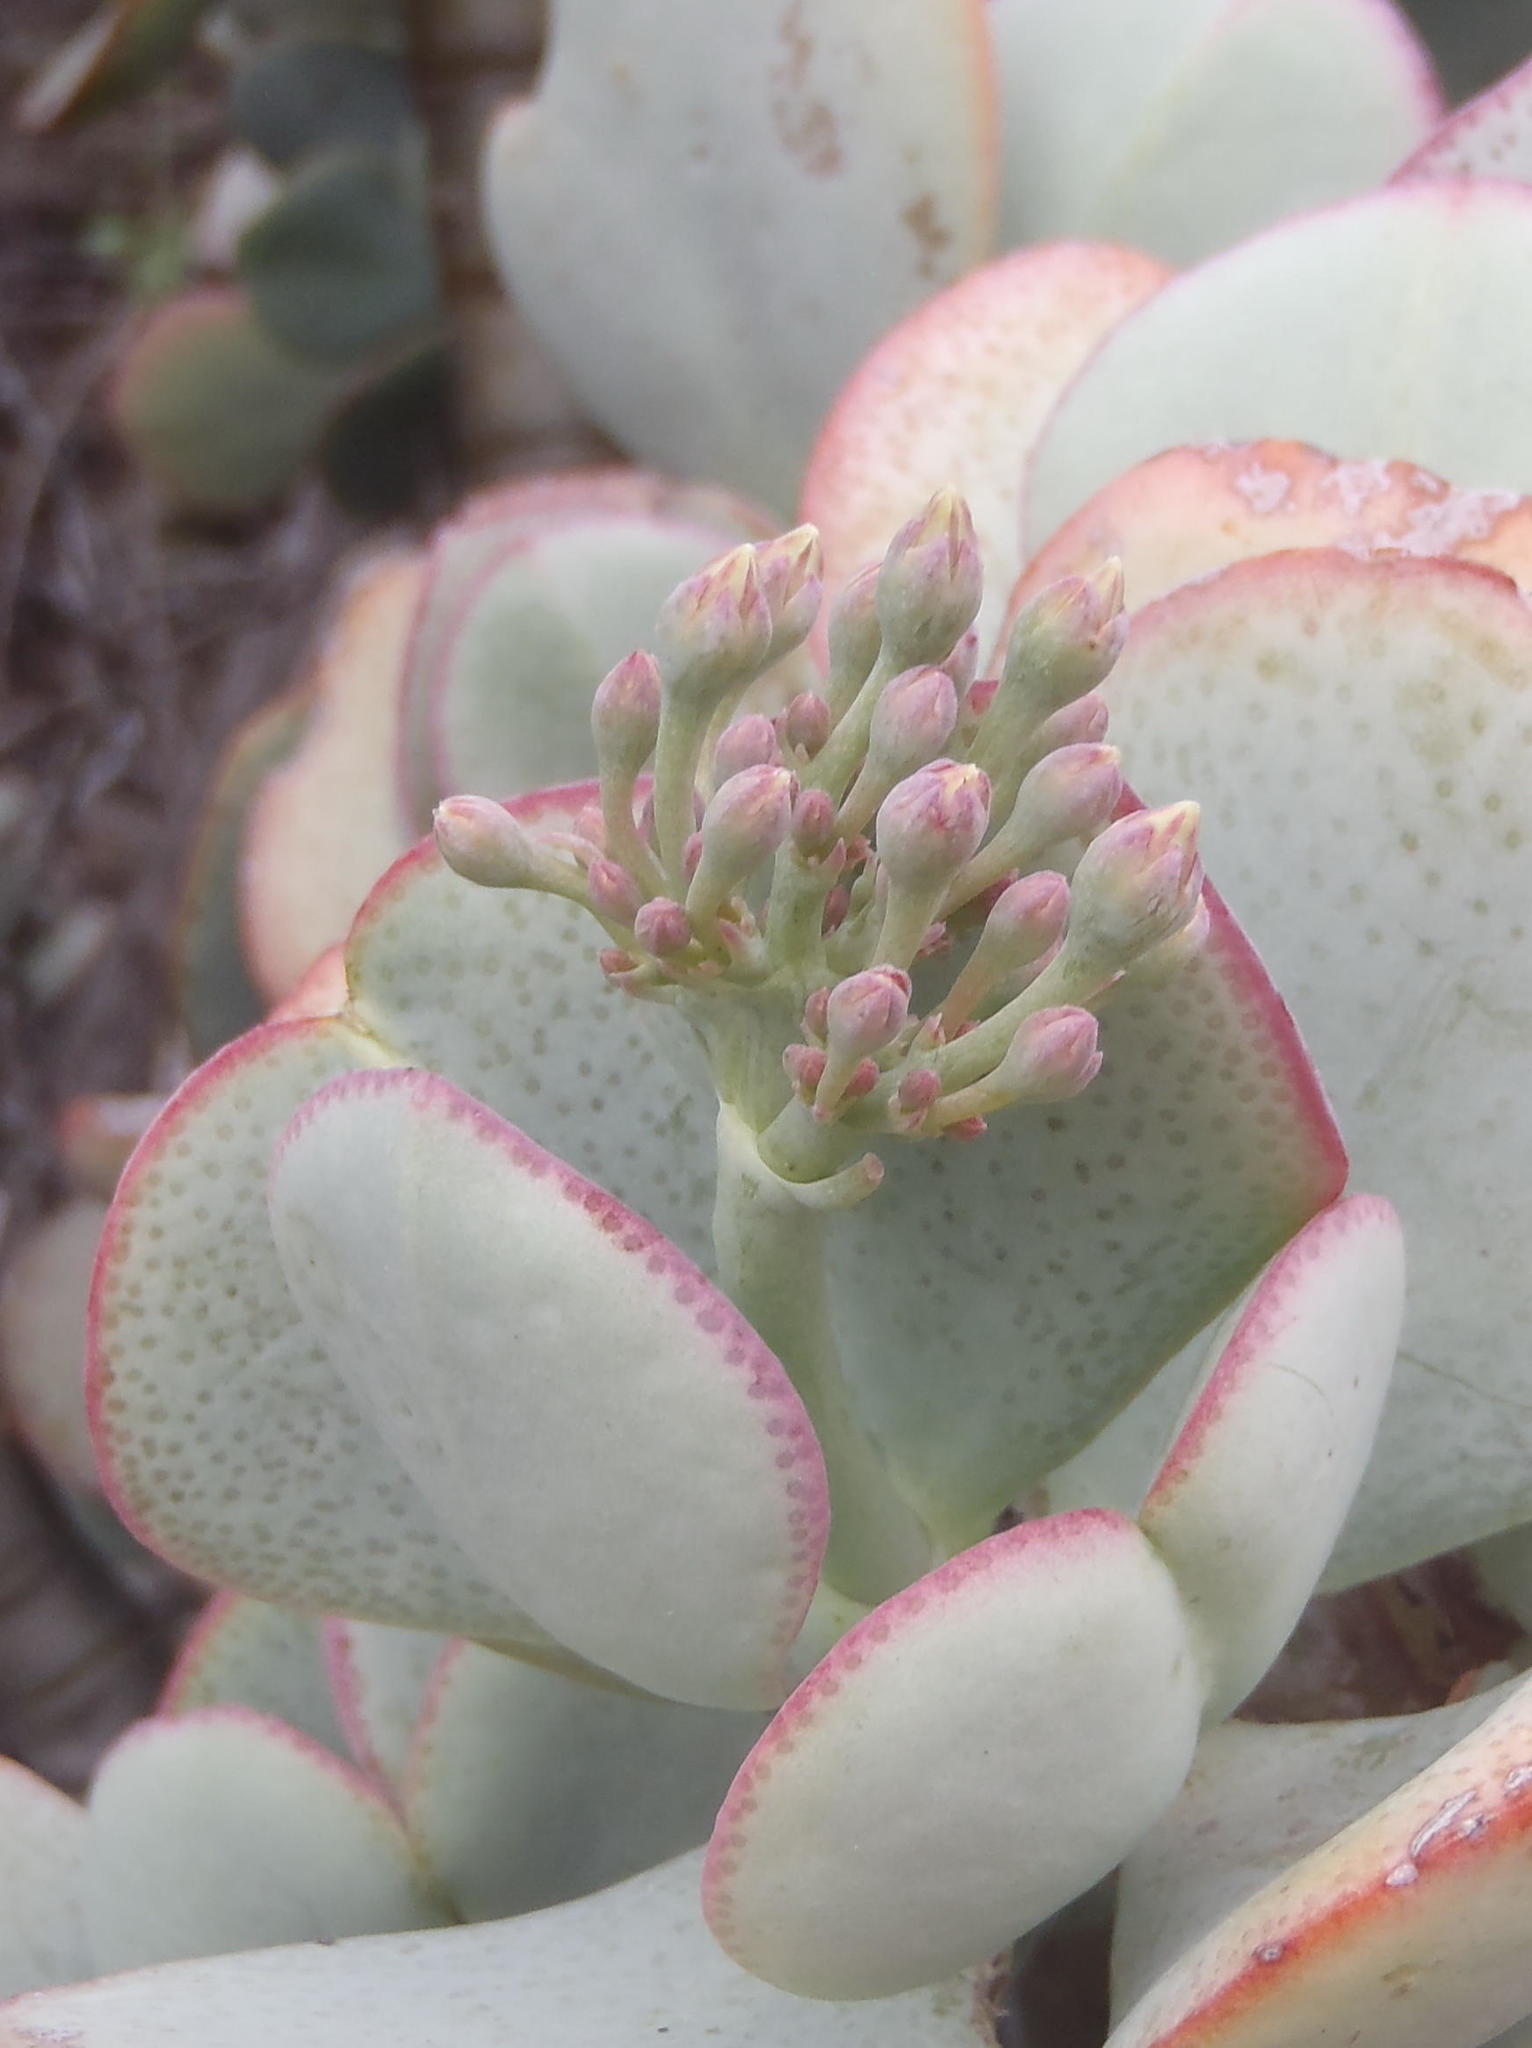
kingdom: Plantae
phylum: Tracheophyta
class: Magnoliopsida
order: Saxifragales
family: Crassulaceae
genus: Crassula
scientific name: Crassula arborescens
